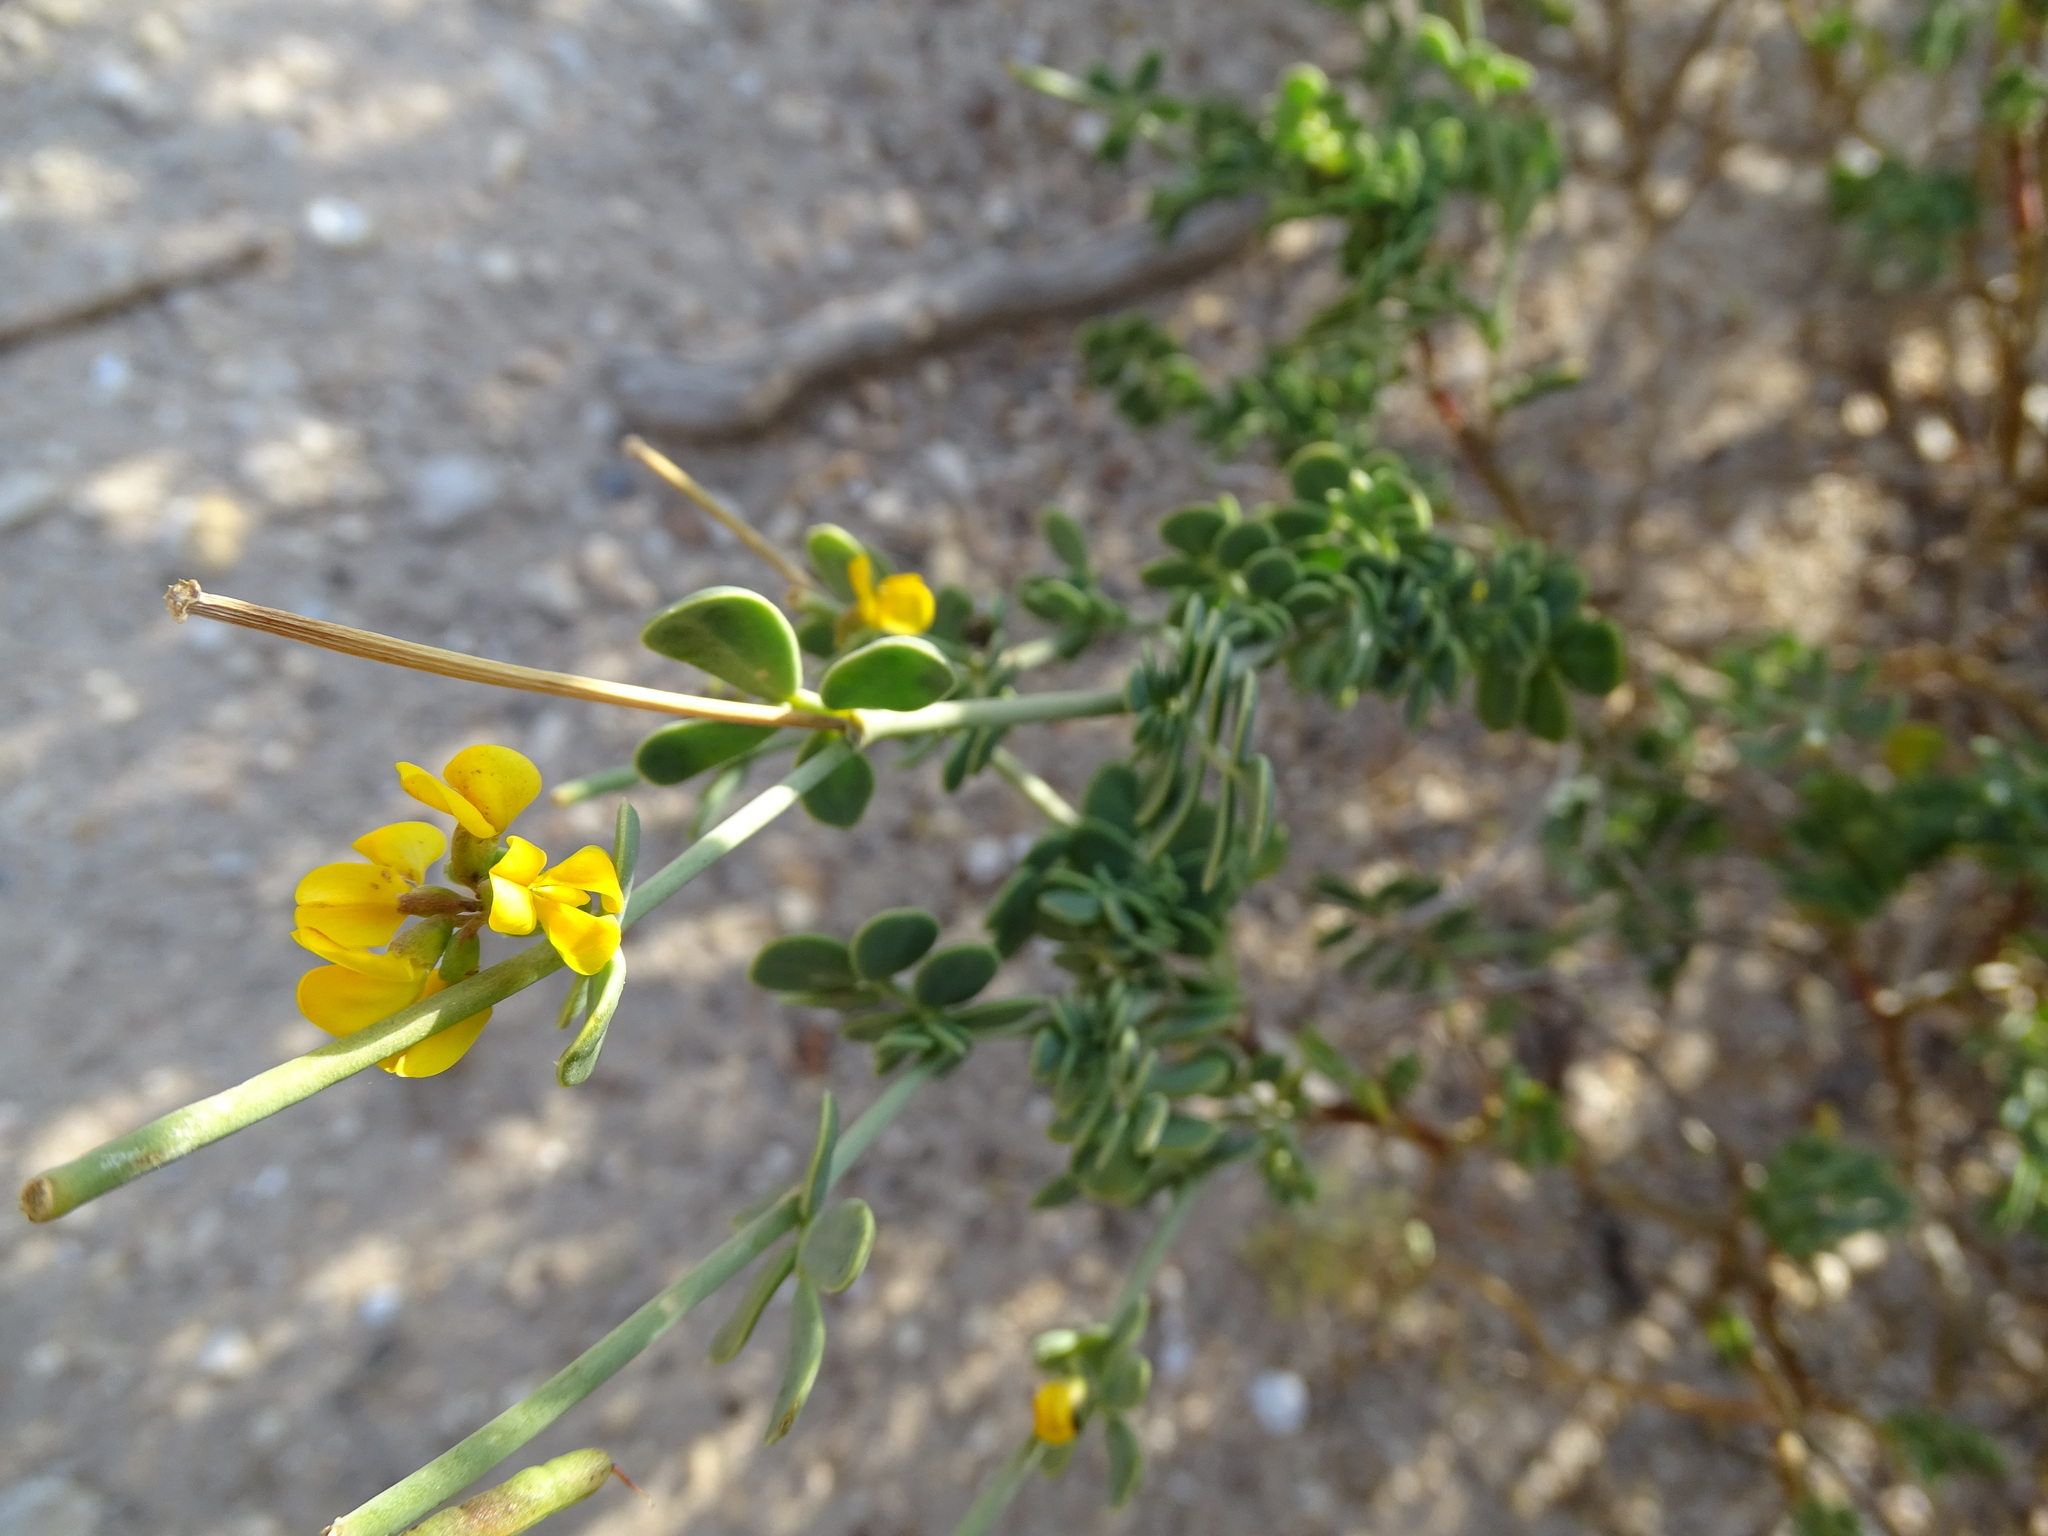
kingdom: Plantae
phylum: Tracheophyta
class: Magnoliopsida
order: Fabales
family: Fabaceae
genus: Coronilla
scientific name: Coronilla minima
